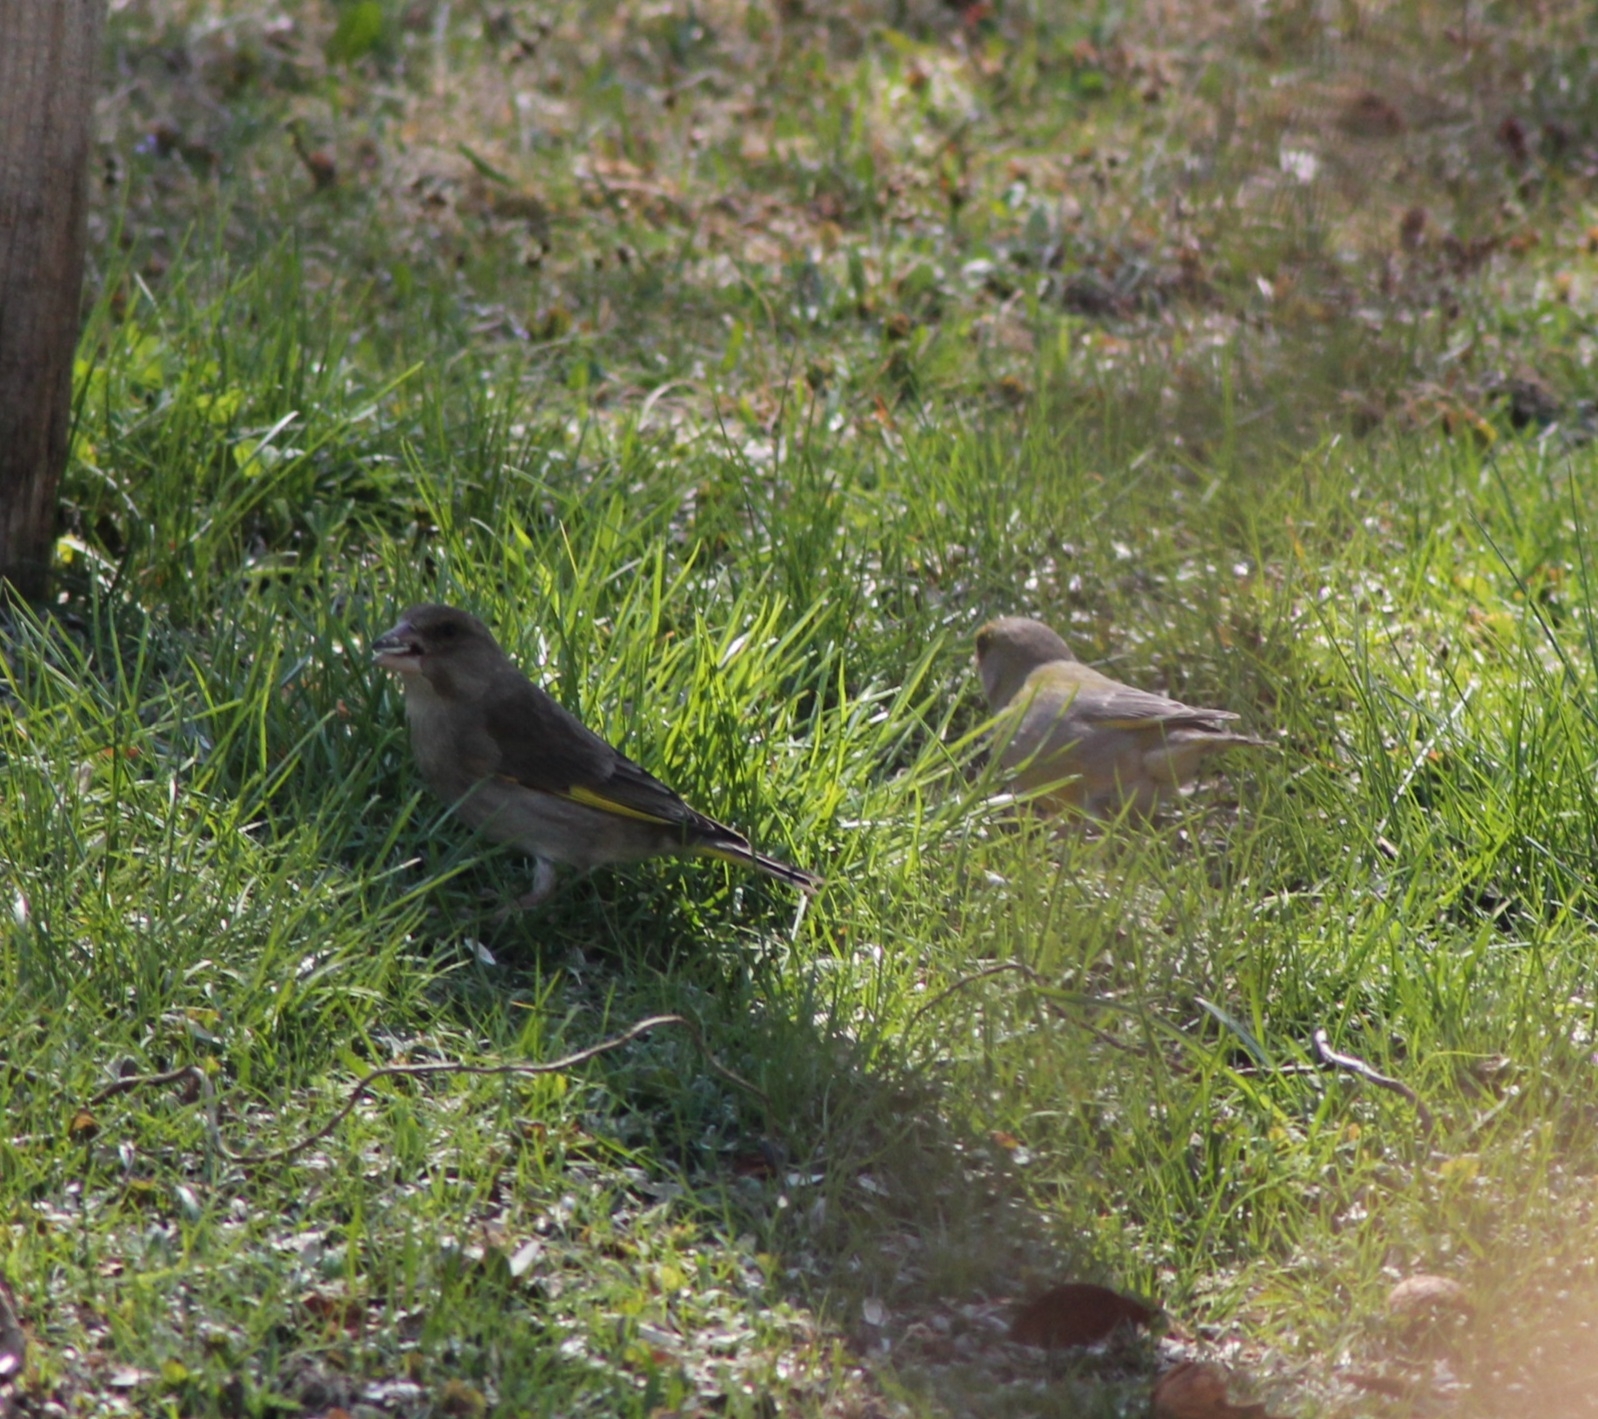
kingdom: Plantae
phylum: Tracheophyta
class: Liliopsida
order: Poales
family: Poaceae
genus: Chloris
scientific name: Chloris chloris
